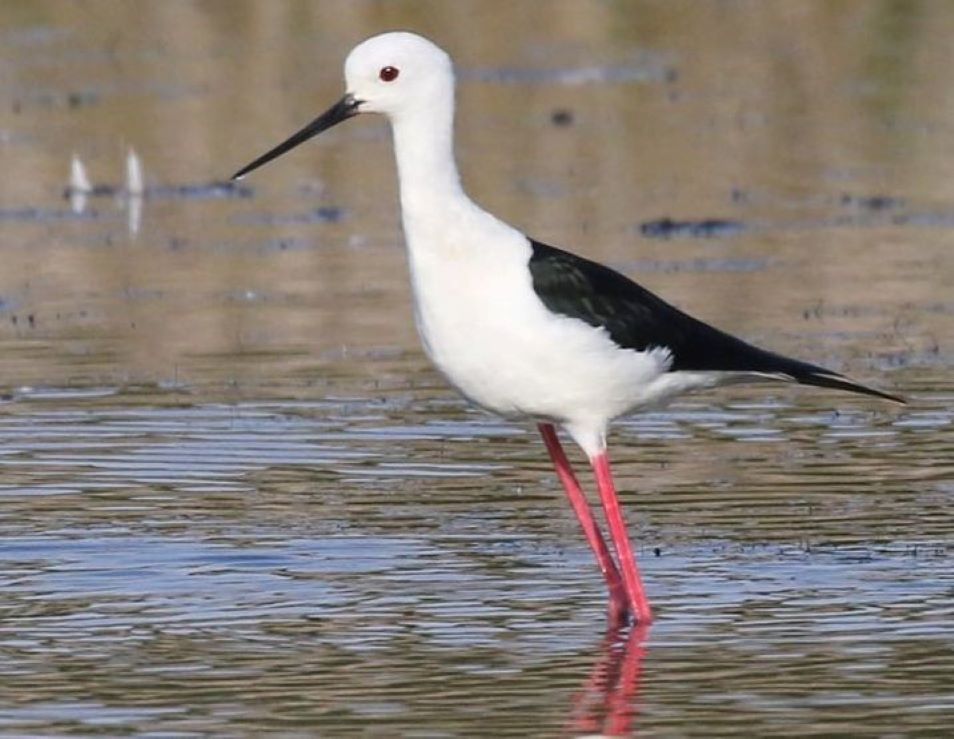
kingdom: Animalia
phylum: Chordata
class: Aves
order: Charadriiformes
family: Recurvirostridae
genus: Himantopus
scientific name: Himantopus himantopus
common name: Black-winged stilt
